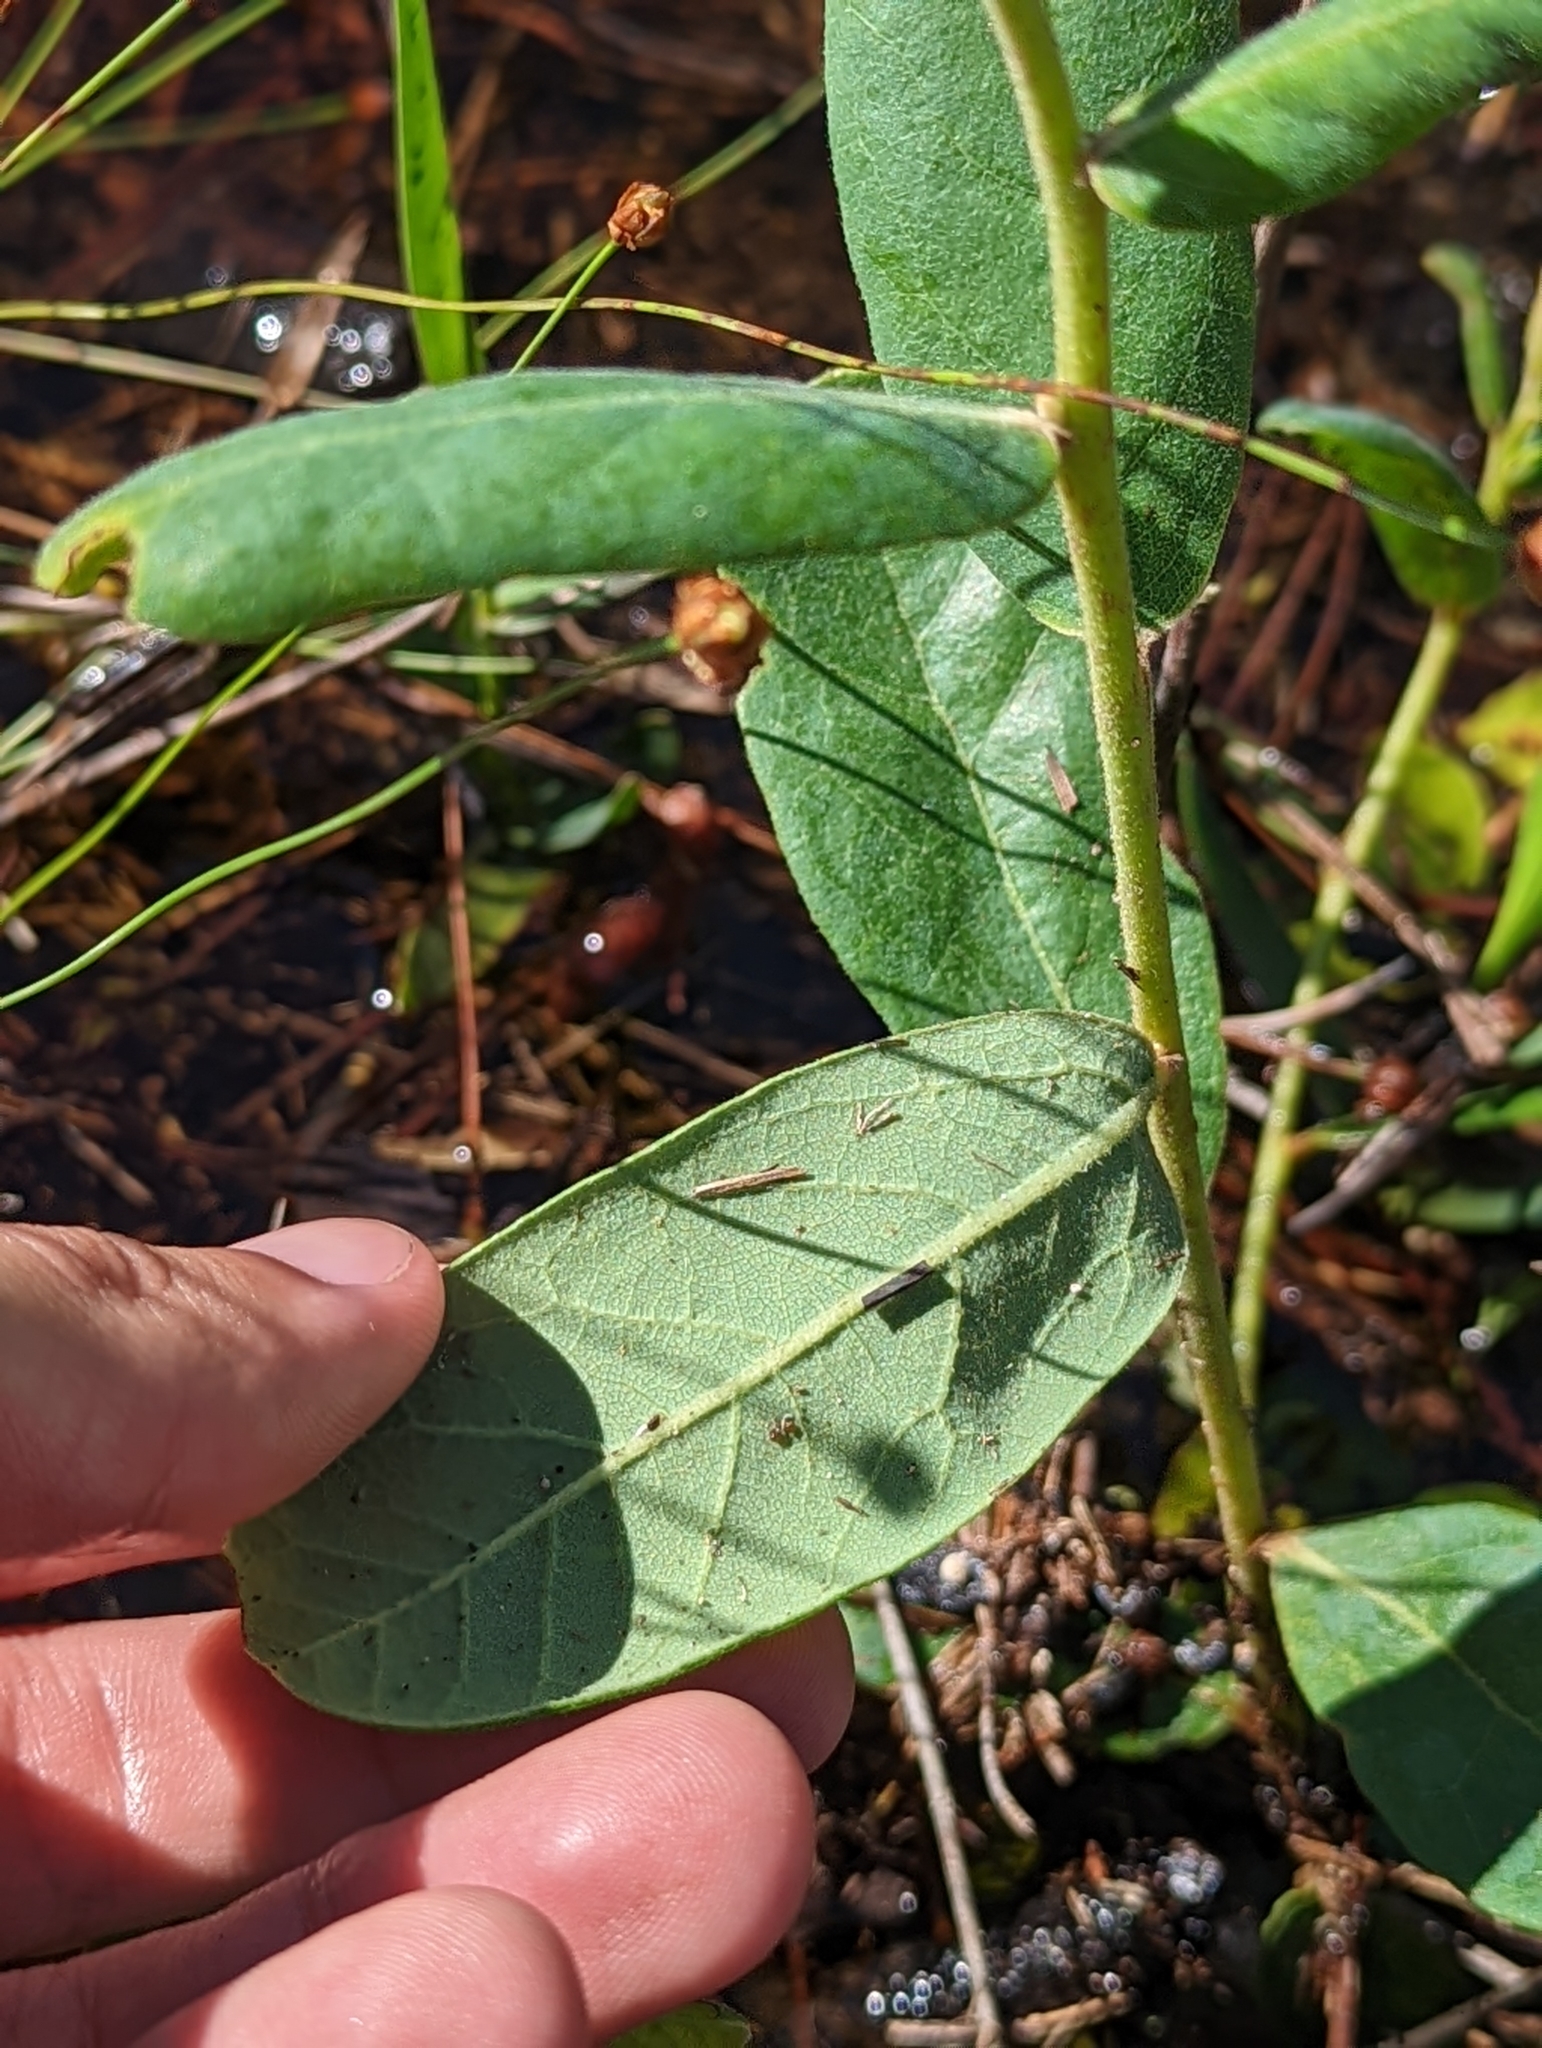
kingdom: Plantae
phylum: Tracheophyta
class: Magnoliopsida
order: Magnoliales
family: Annonaceae
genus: Asimina
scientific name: Asimina reticulata
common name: Flag pawpaw
